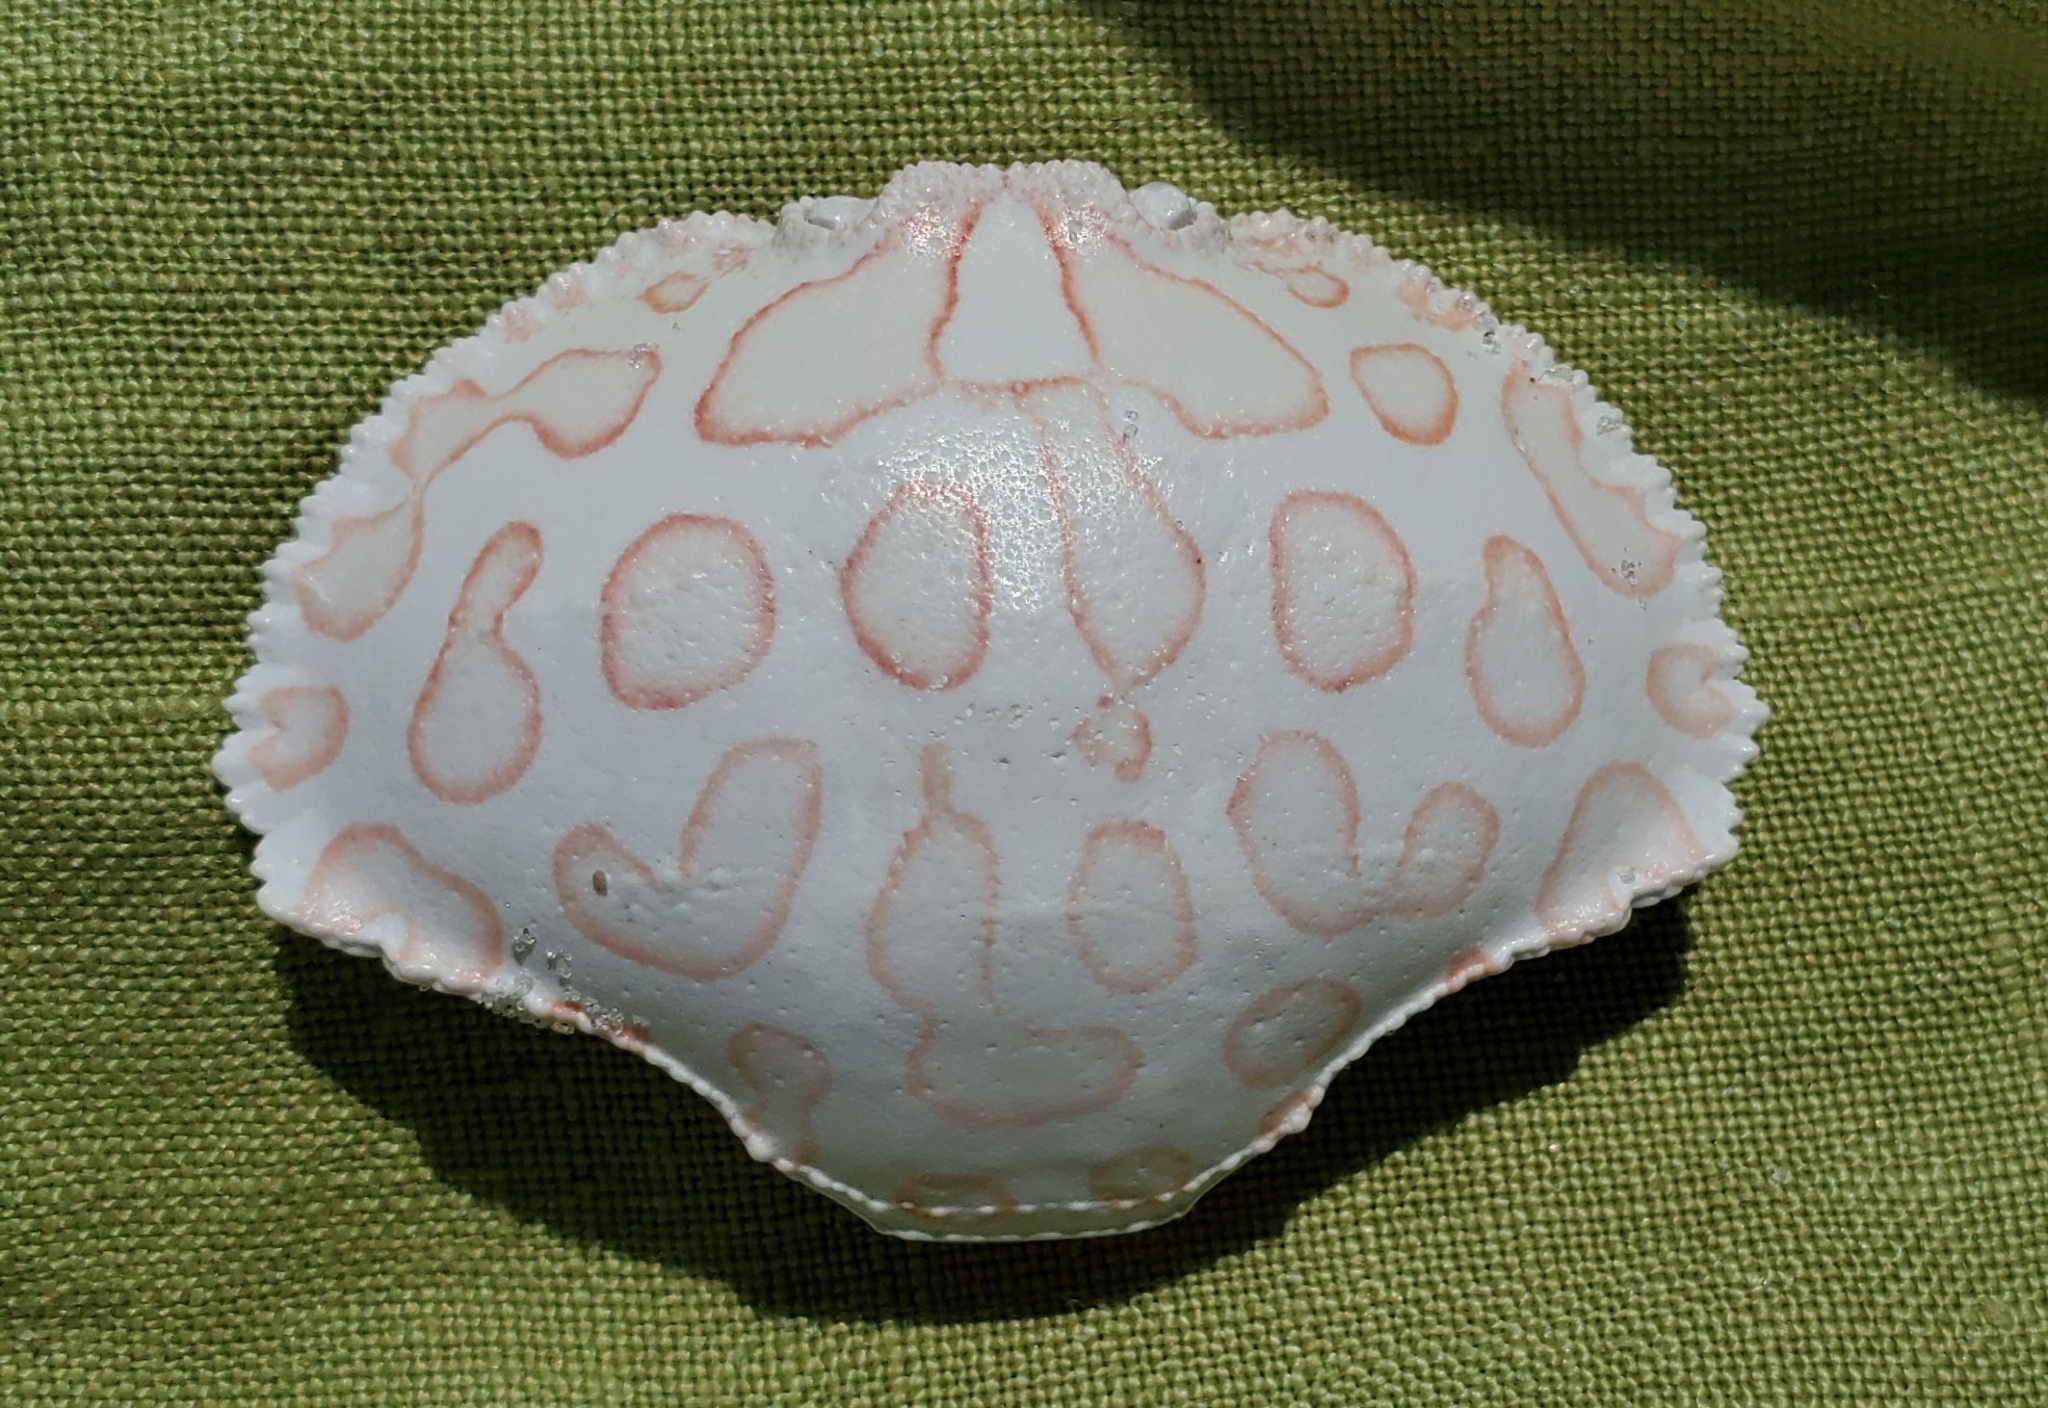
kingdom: Animalia
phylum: Arthropoda
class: Malacostraca
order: Decapoda
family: Aethridae
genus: Hepatus
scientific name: Hepatus epheliticus
